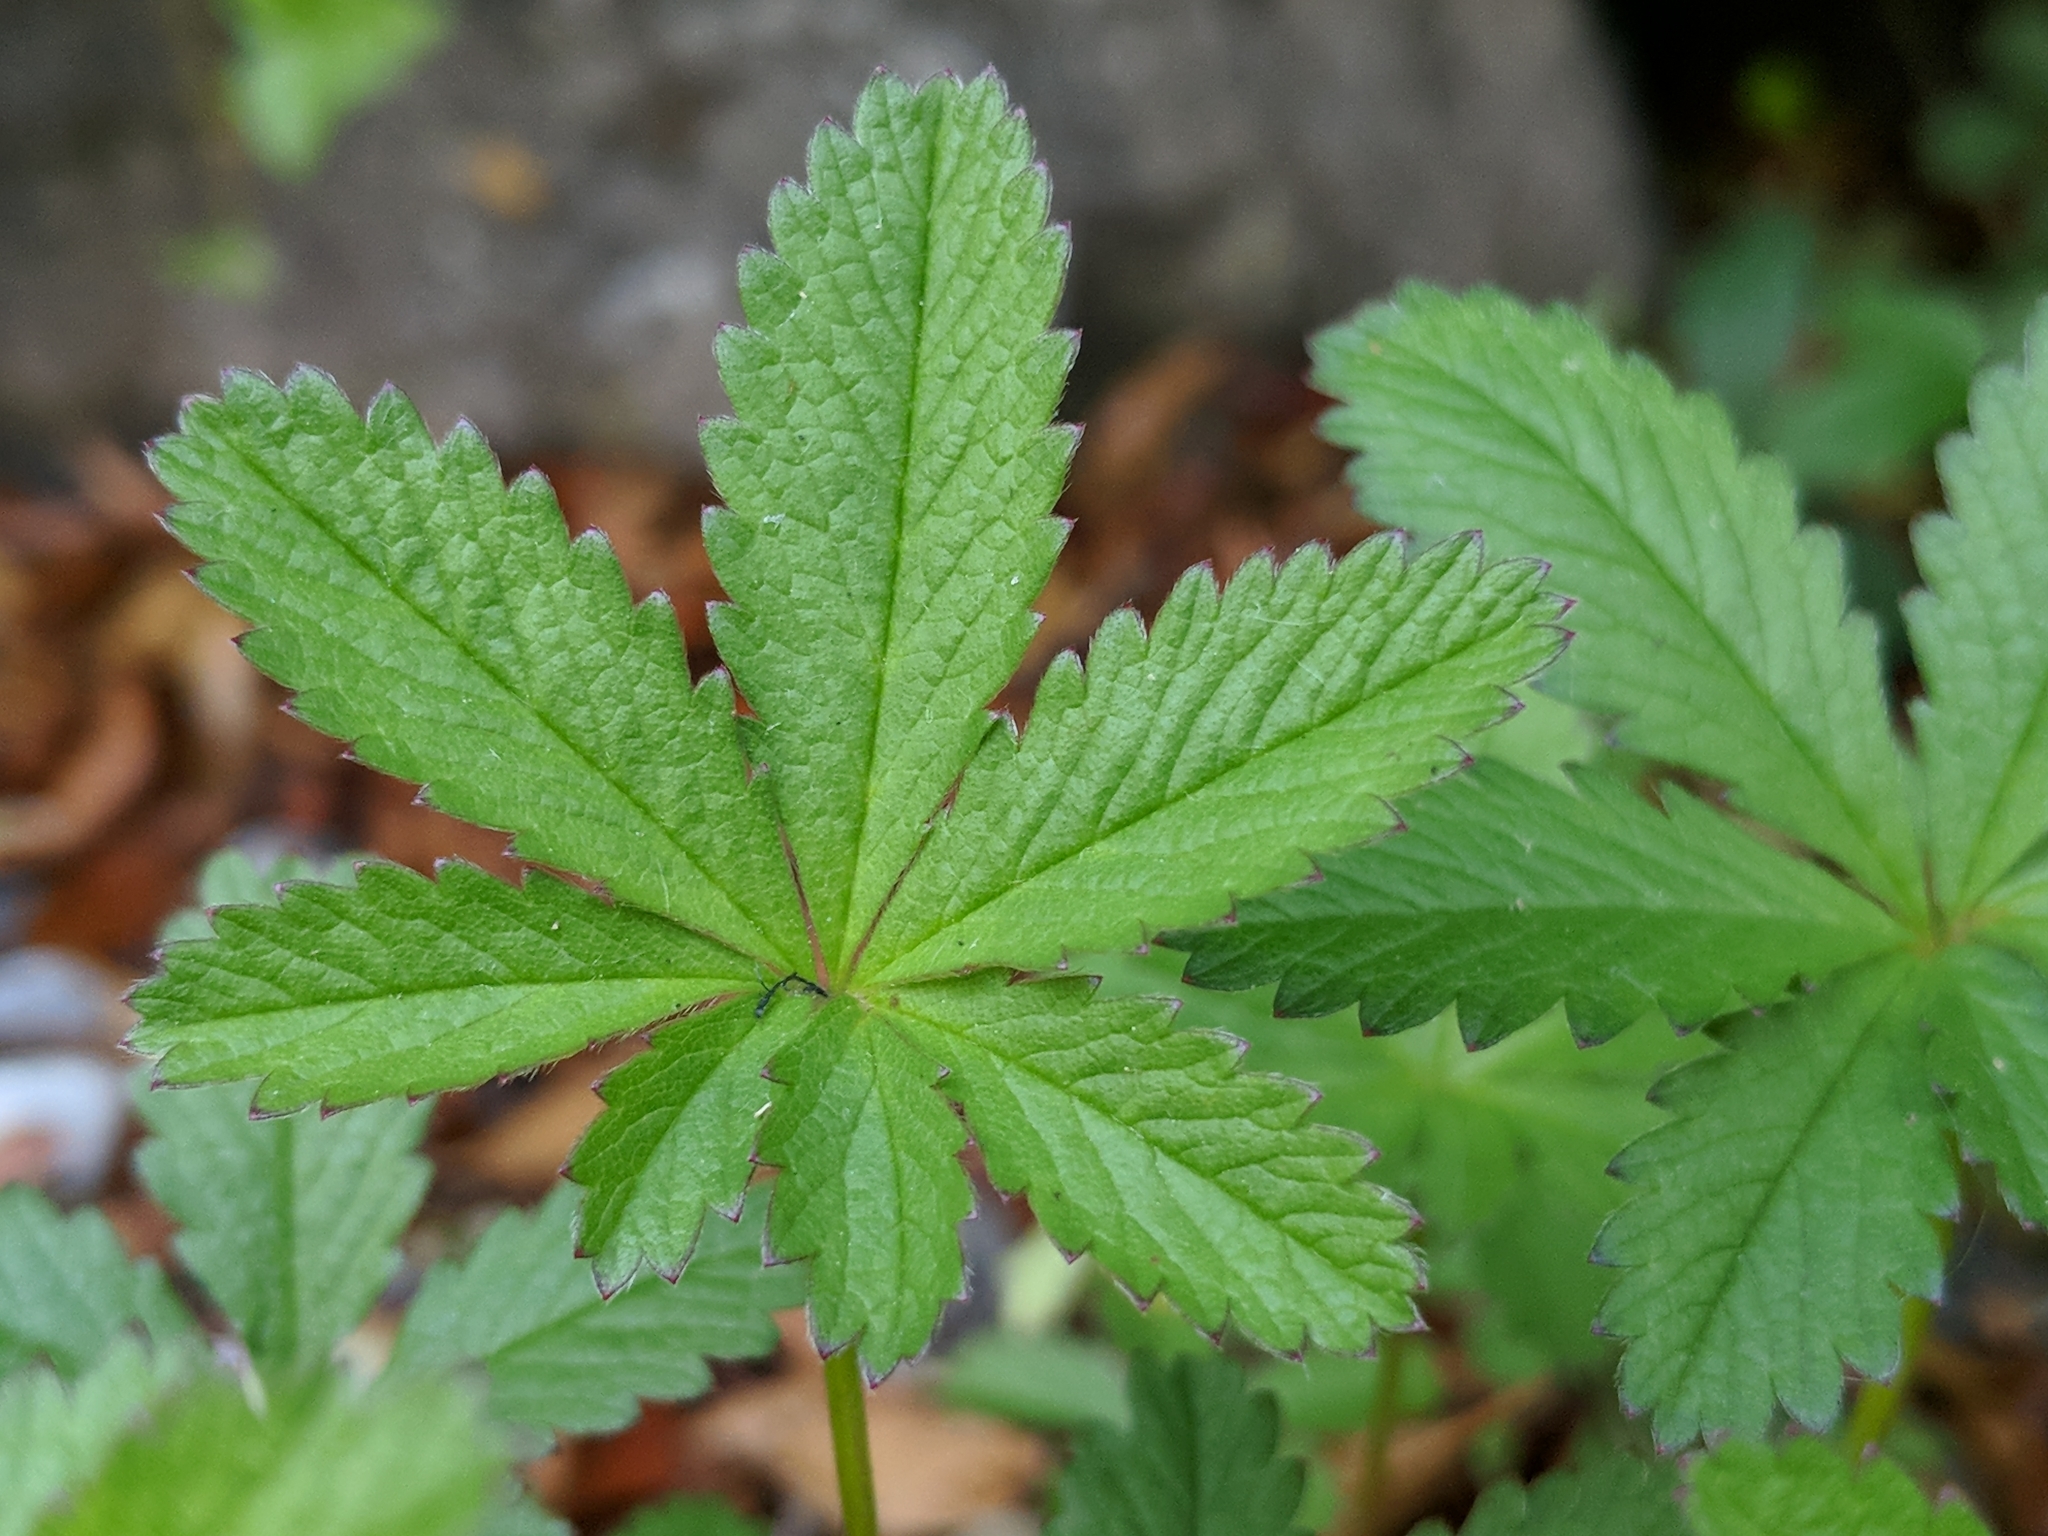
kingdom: Plantae
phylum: Tracheophyta
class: Magnoliopsida
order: Rosales
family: Rosaceae
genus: Potentilla
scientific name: Potentilla reptans
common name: Creeping cinquefoil
